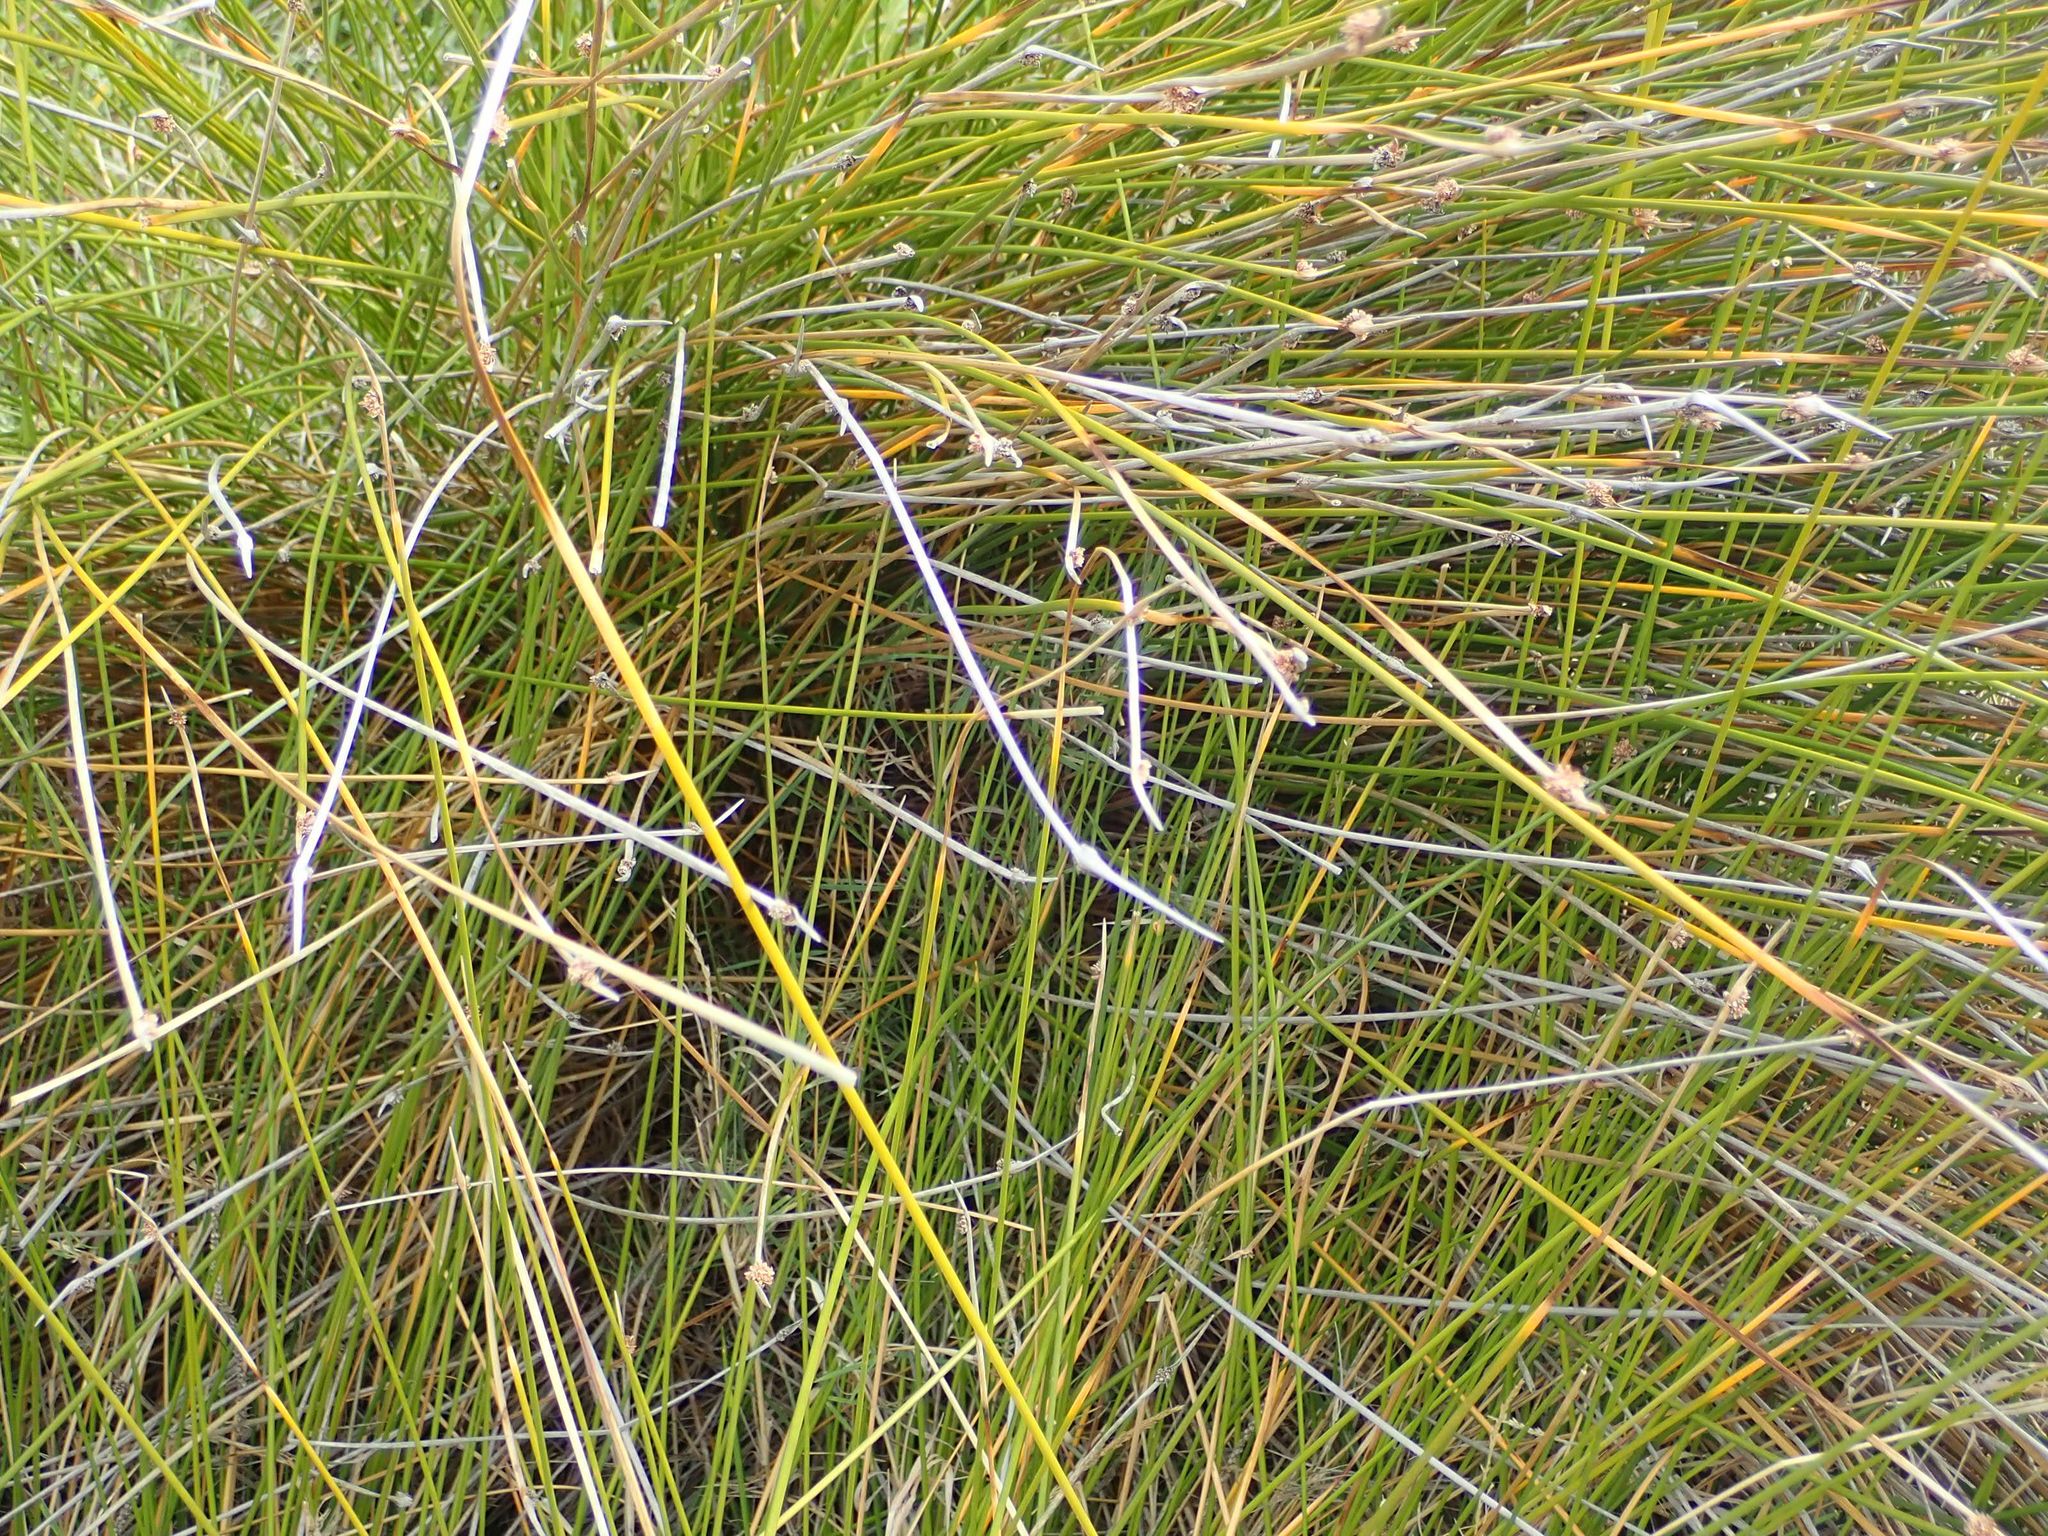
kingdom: Plantae
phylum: Tracheophyta
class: Liliopsida
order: Poales
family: Cyperaceae
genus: Ficinia
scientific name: Ficinia nodosa
